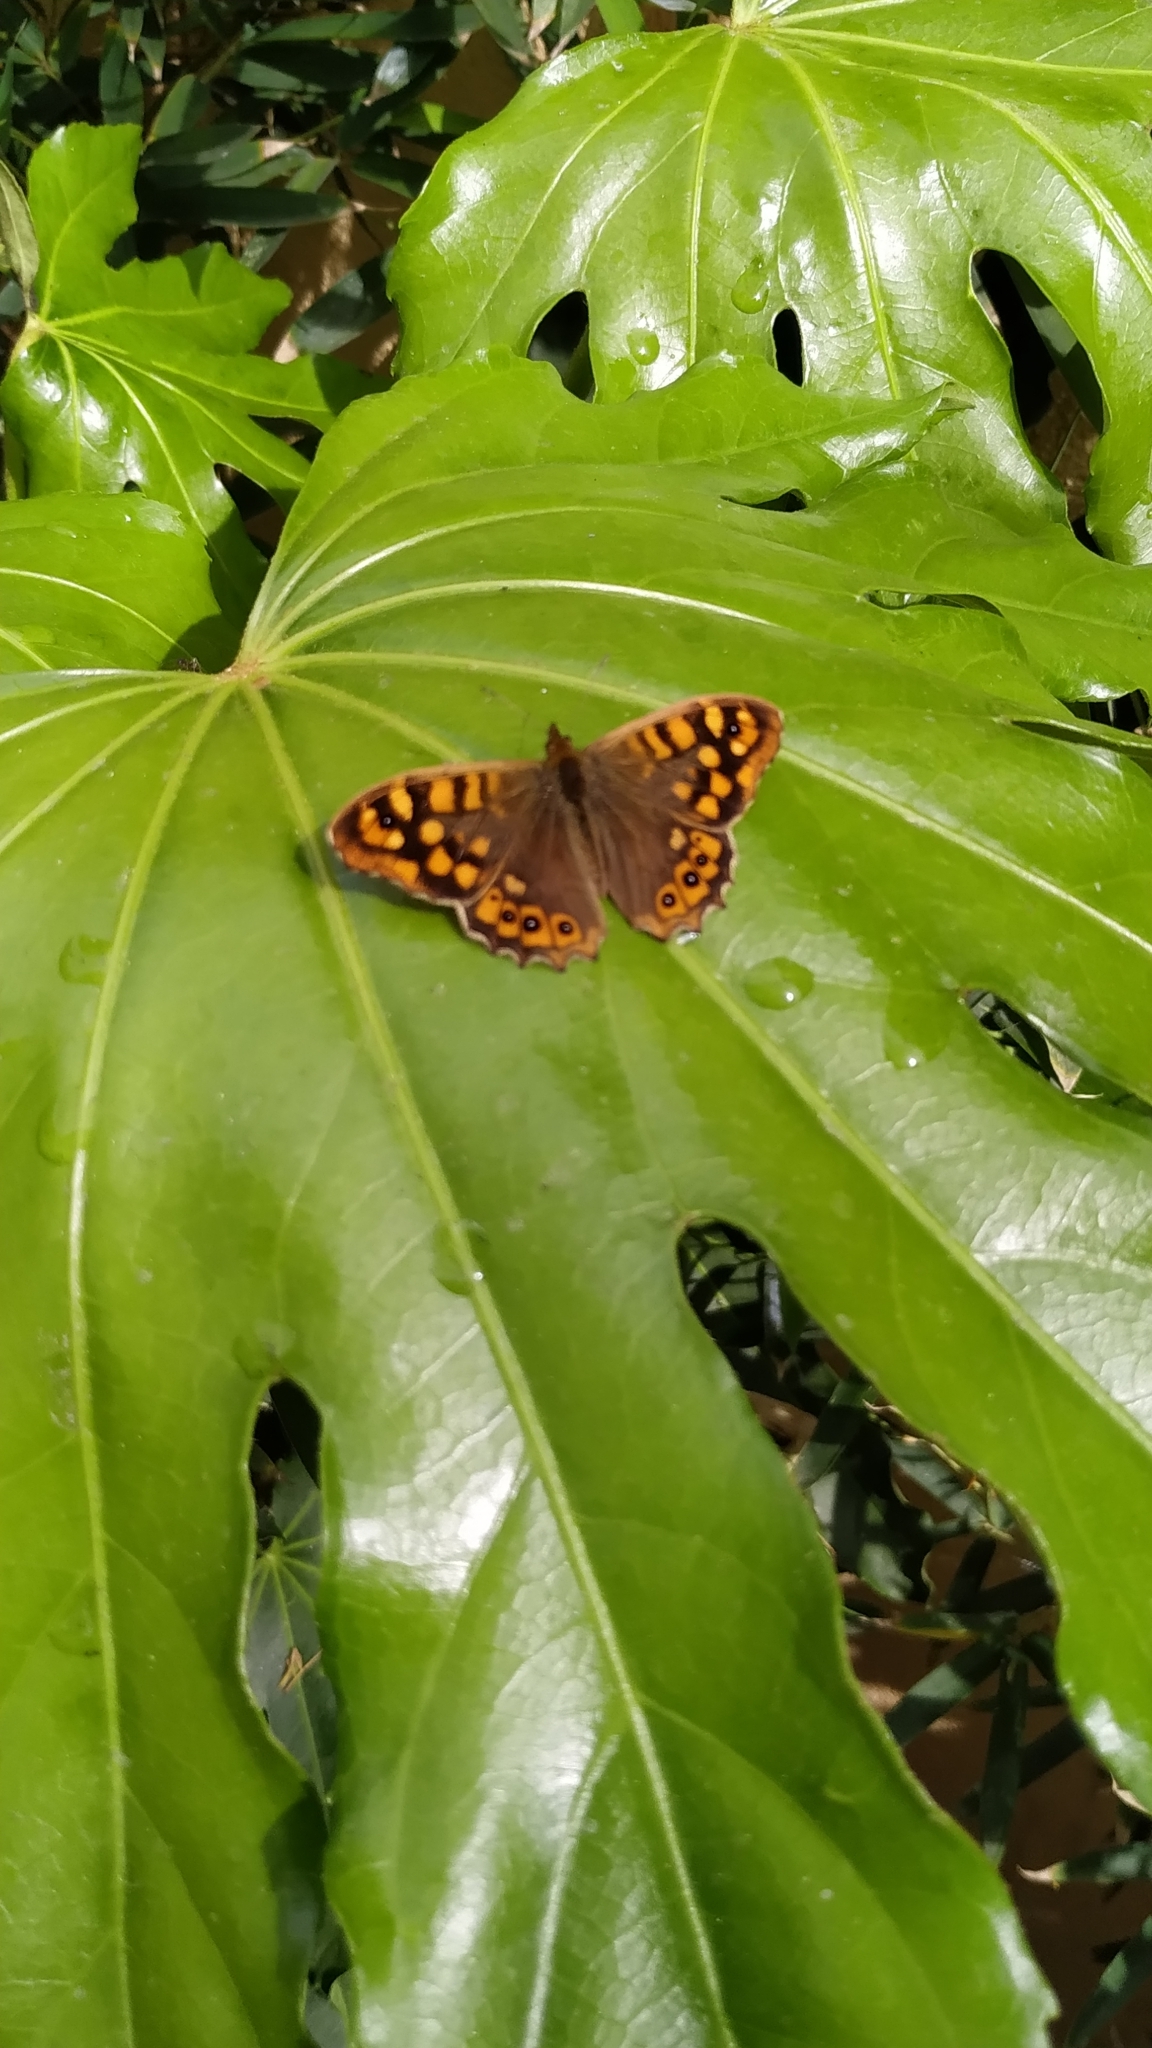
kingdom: Animalia
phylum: Arthropoda
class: Insecta
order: Lepidoptera
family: Nymphalidae
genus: Pararge
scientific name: Pararge aegeria
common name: Speckled wood
